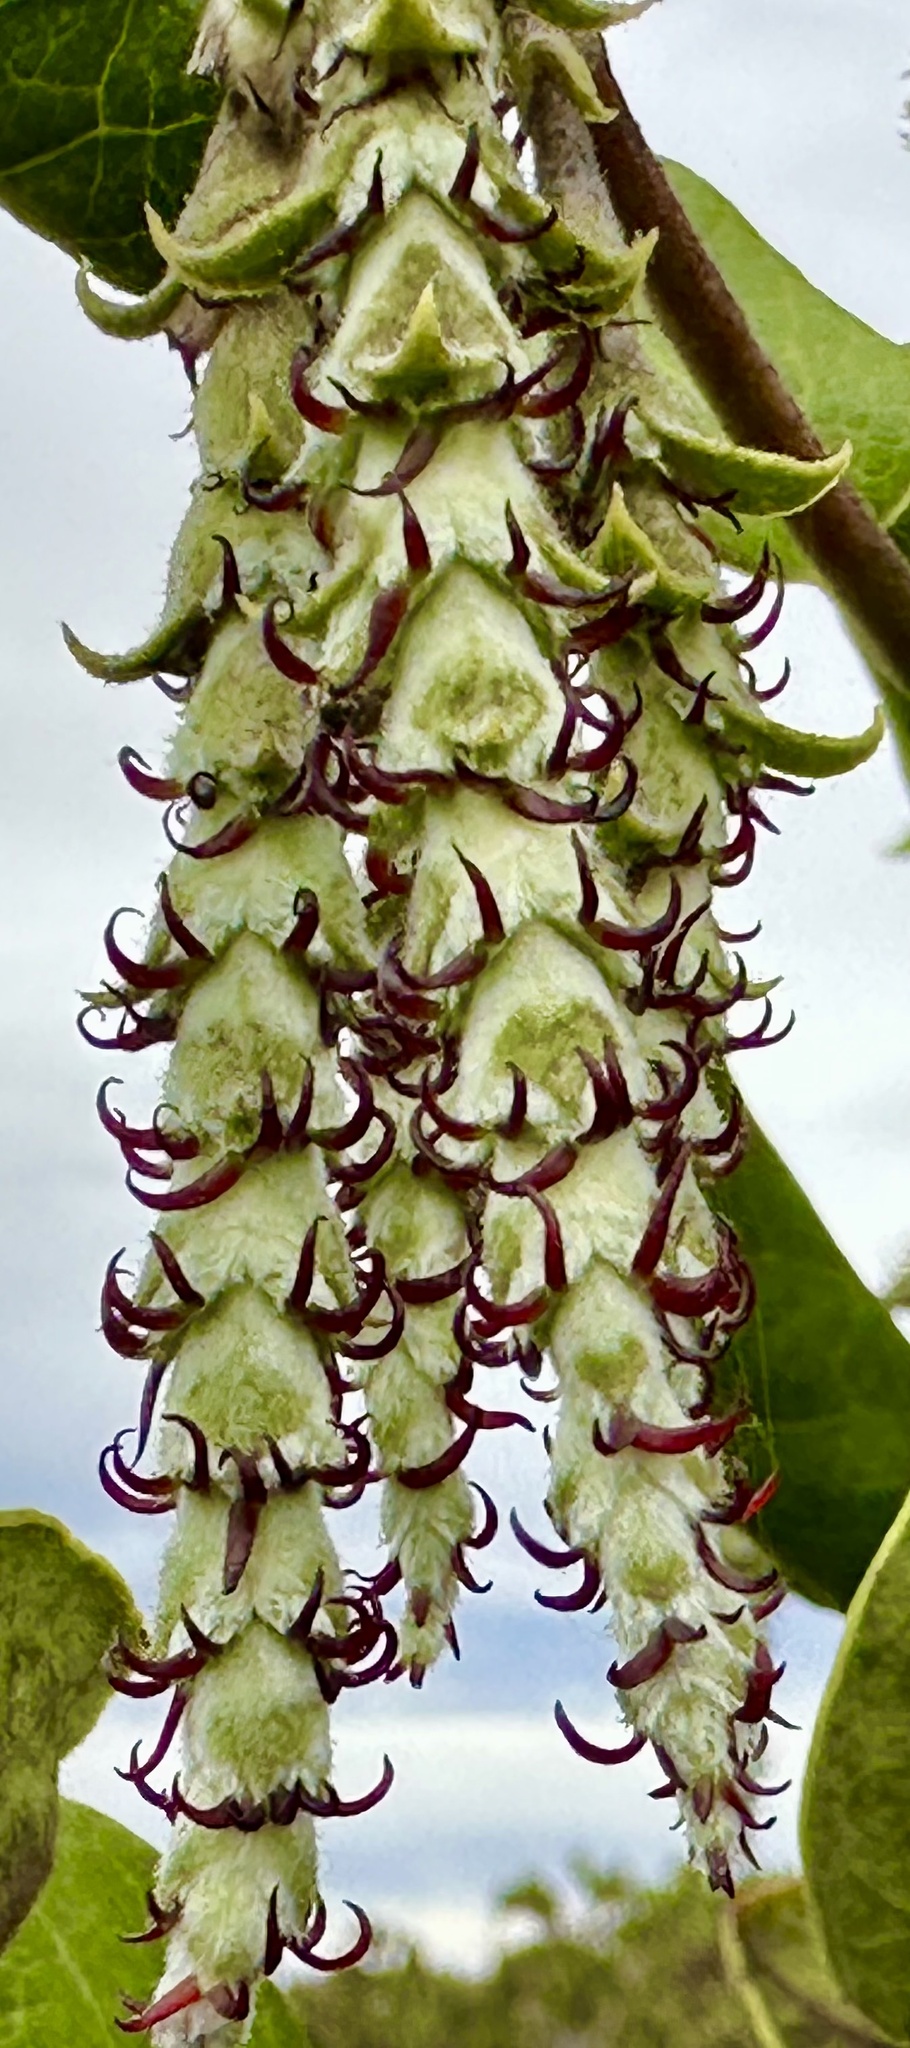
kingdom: Plantae
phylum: Tracheophyta
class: Magnoliopsida
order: Garryales
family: Garryaceae
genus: Garrya
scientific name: Garrya elliptica
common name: Silk-tassel
